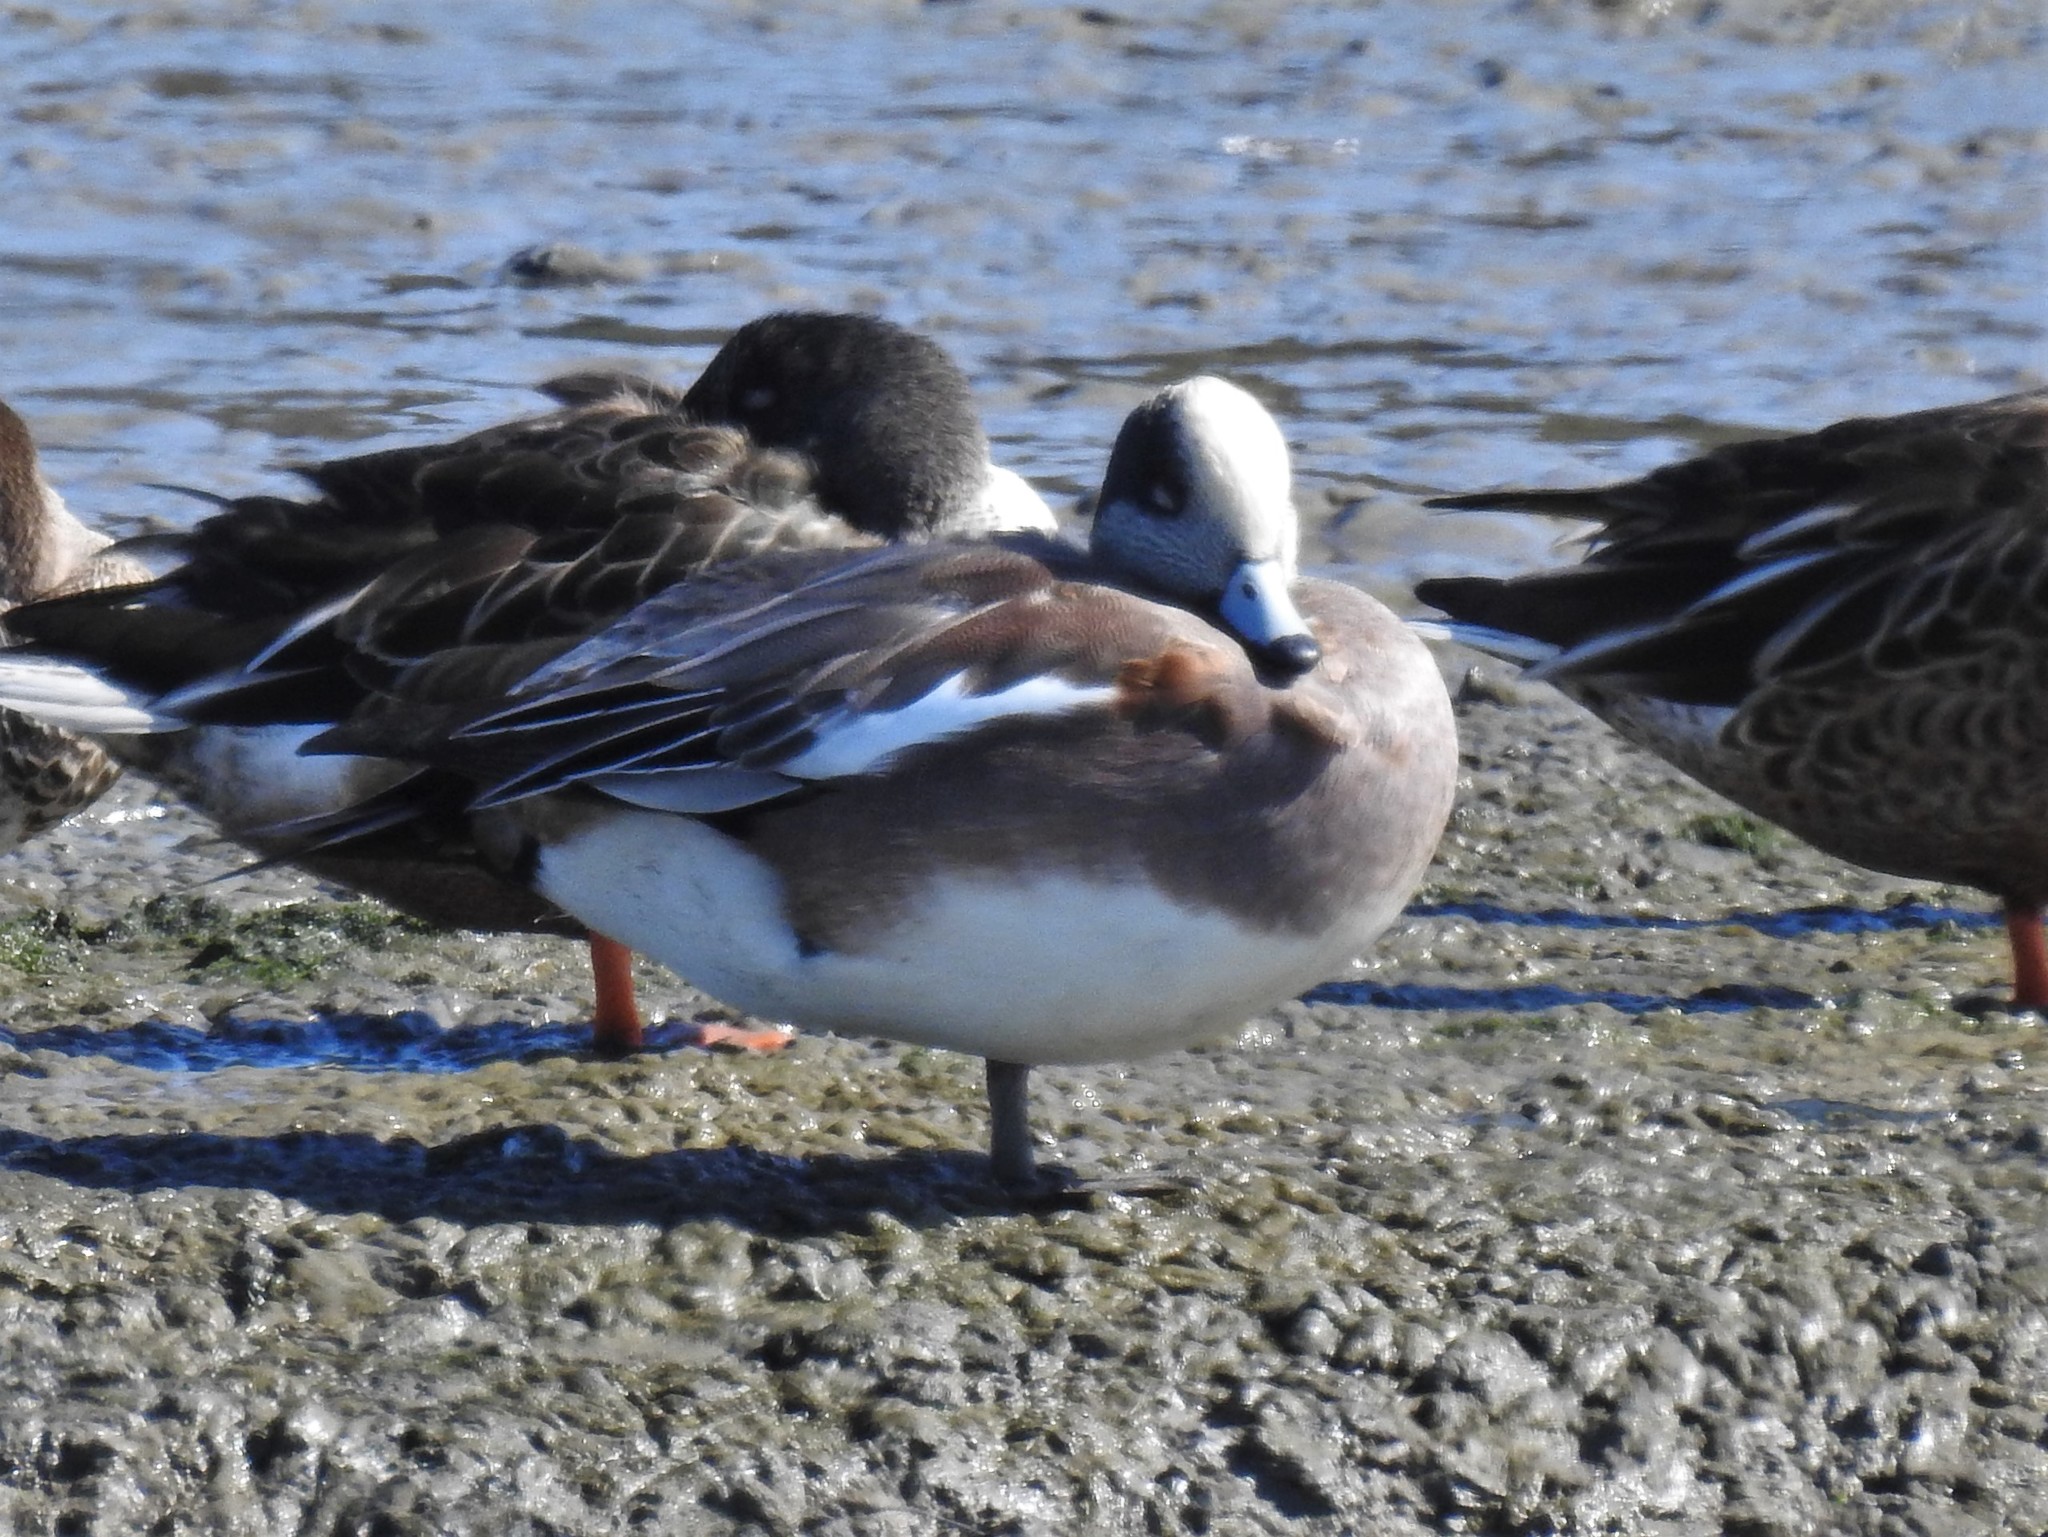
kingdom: Animalia
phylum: Chordata
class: Aves
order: Anseriformes
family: Anatidae
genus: Mareca
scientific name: Mareca americana
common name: American wigeon
